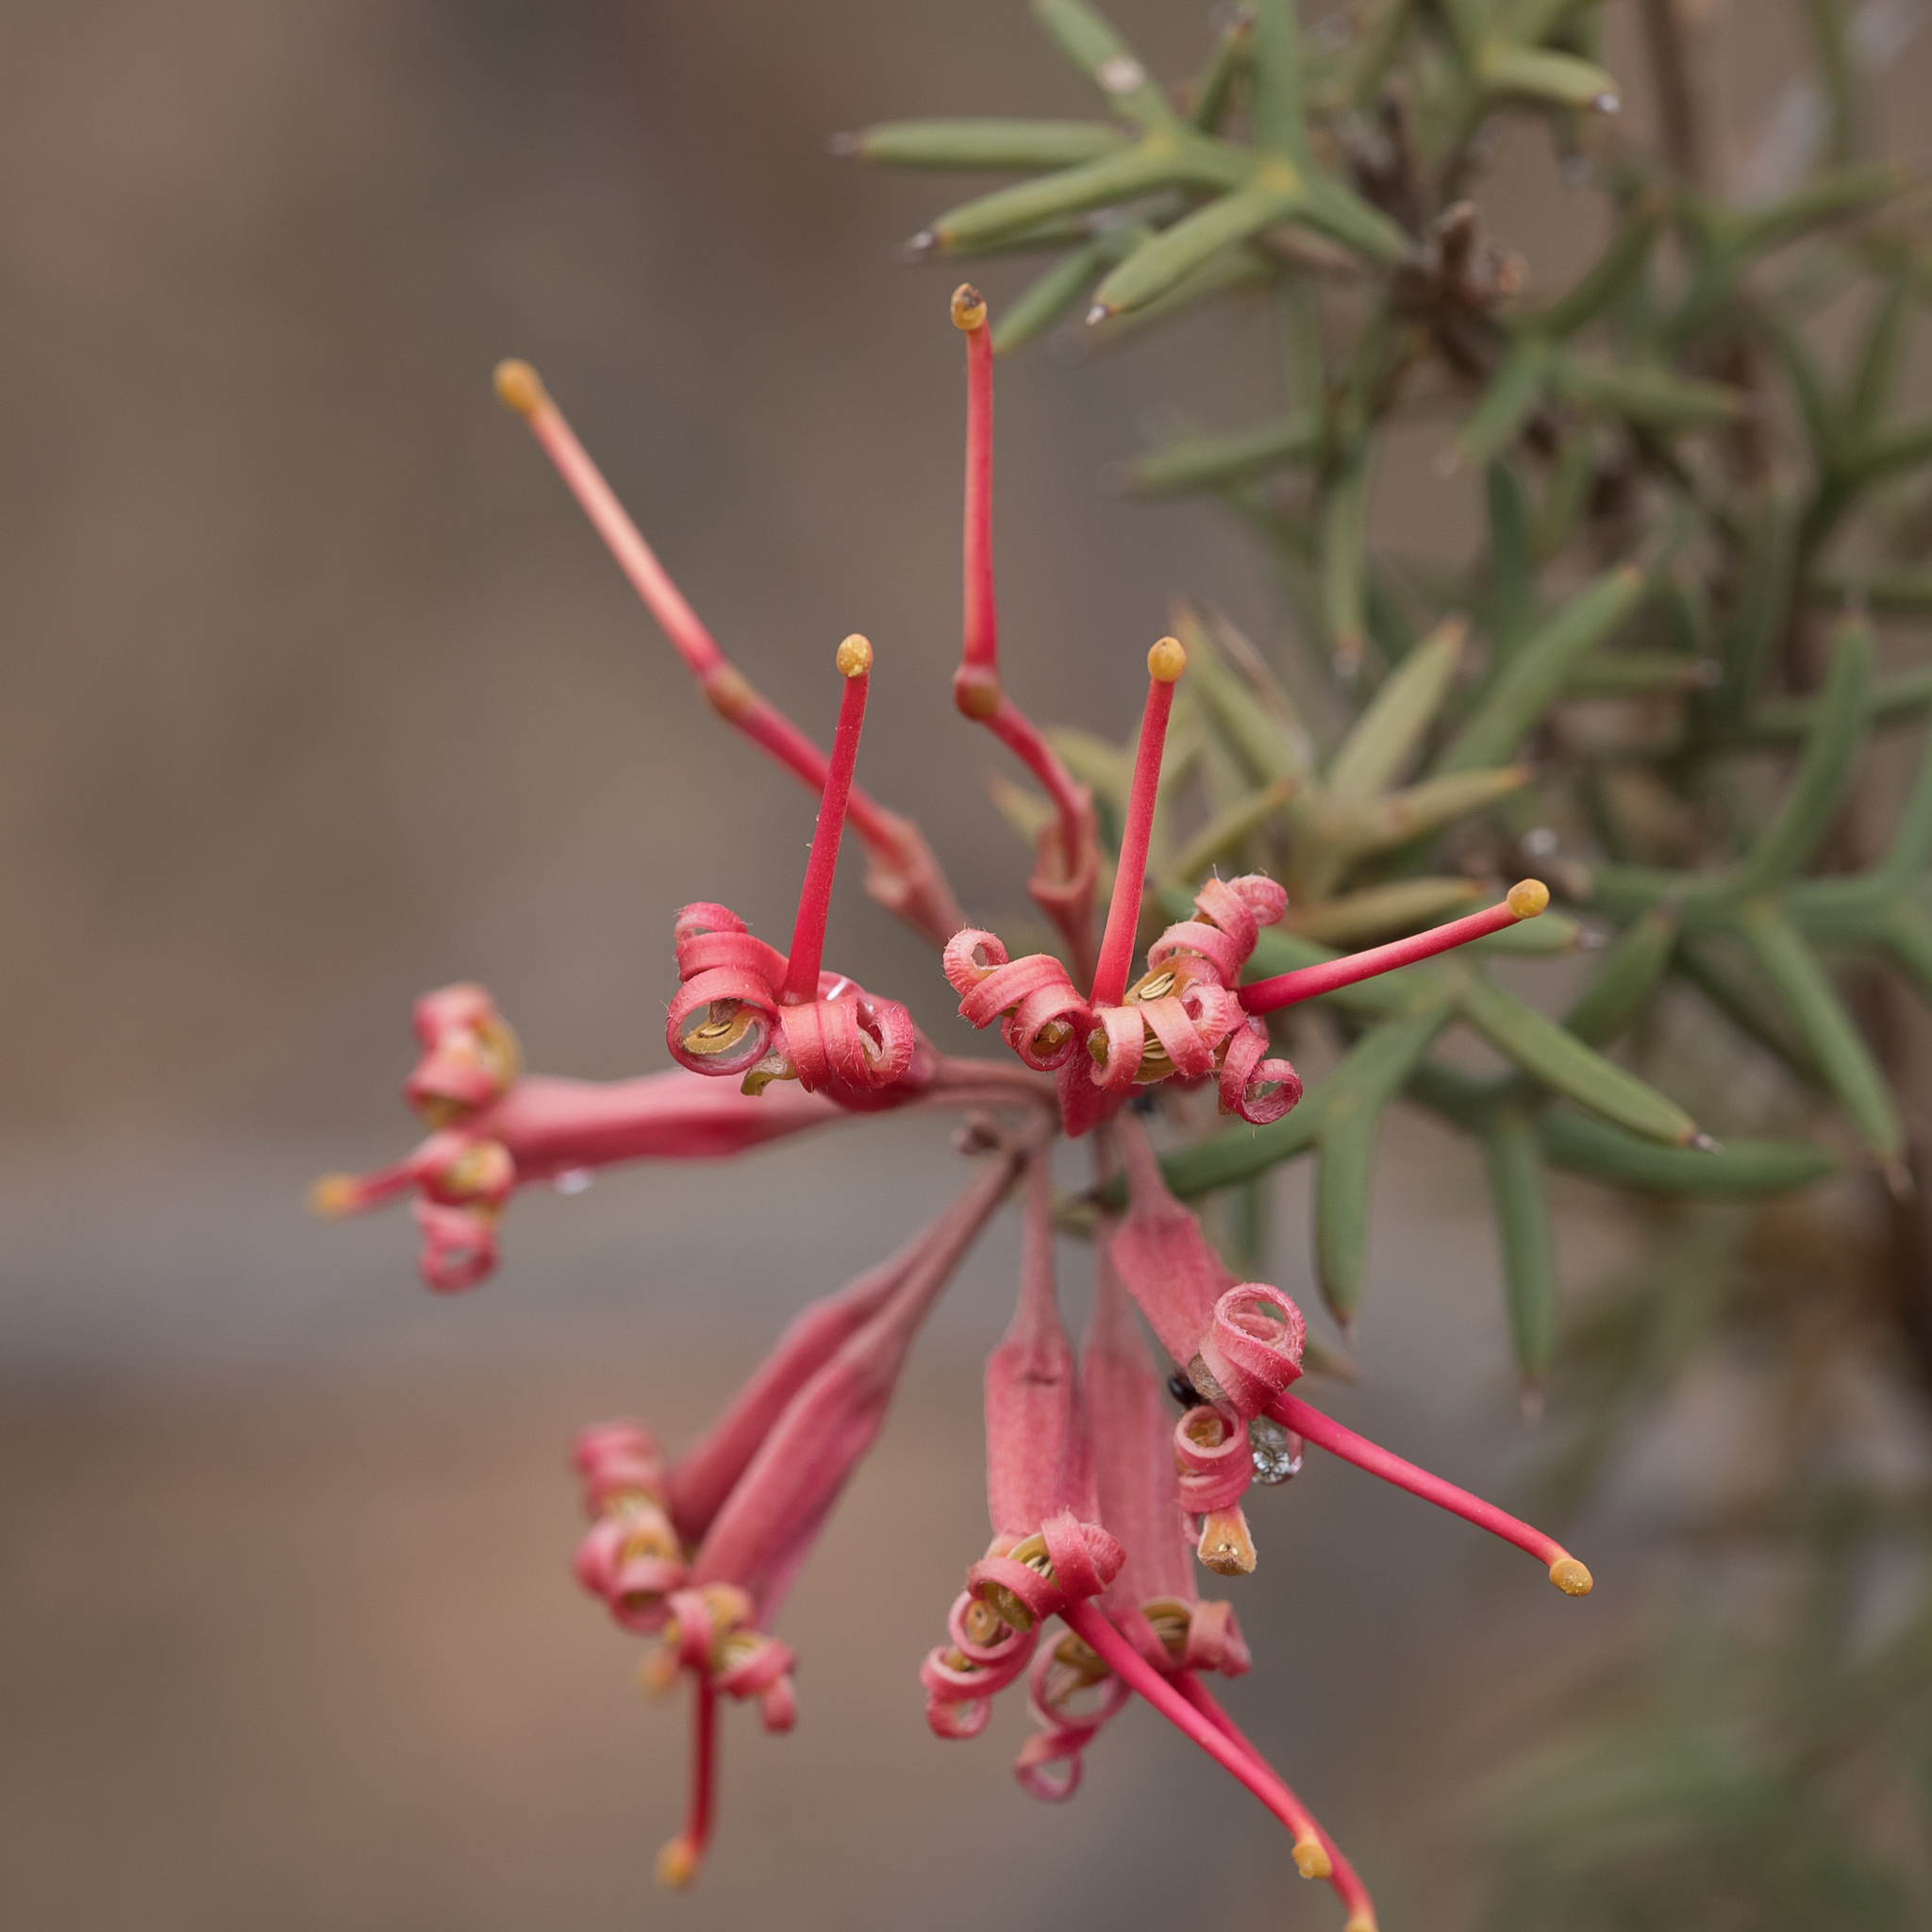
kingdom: Plantae
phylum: Tracheophyta
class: Magnoliopsida
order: Proteales
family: Proteaceae
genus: Grevillea
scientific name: Grevillea huegelii
